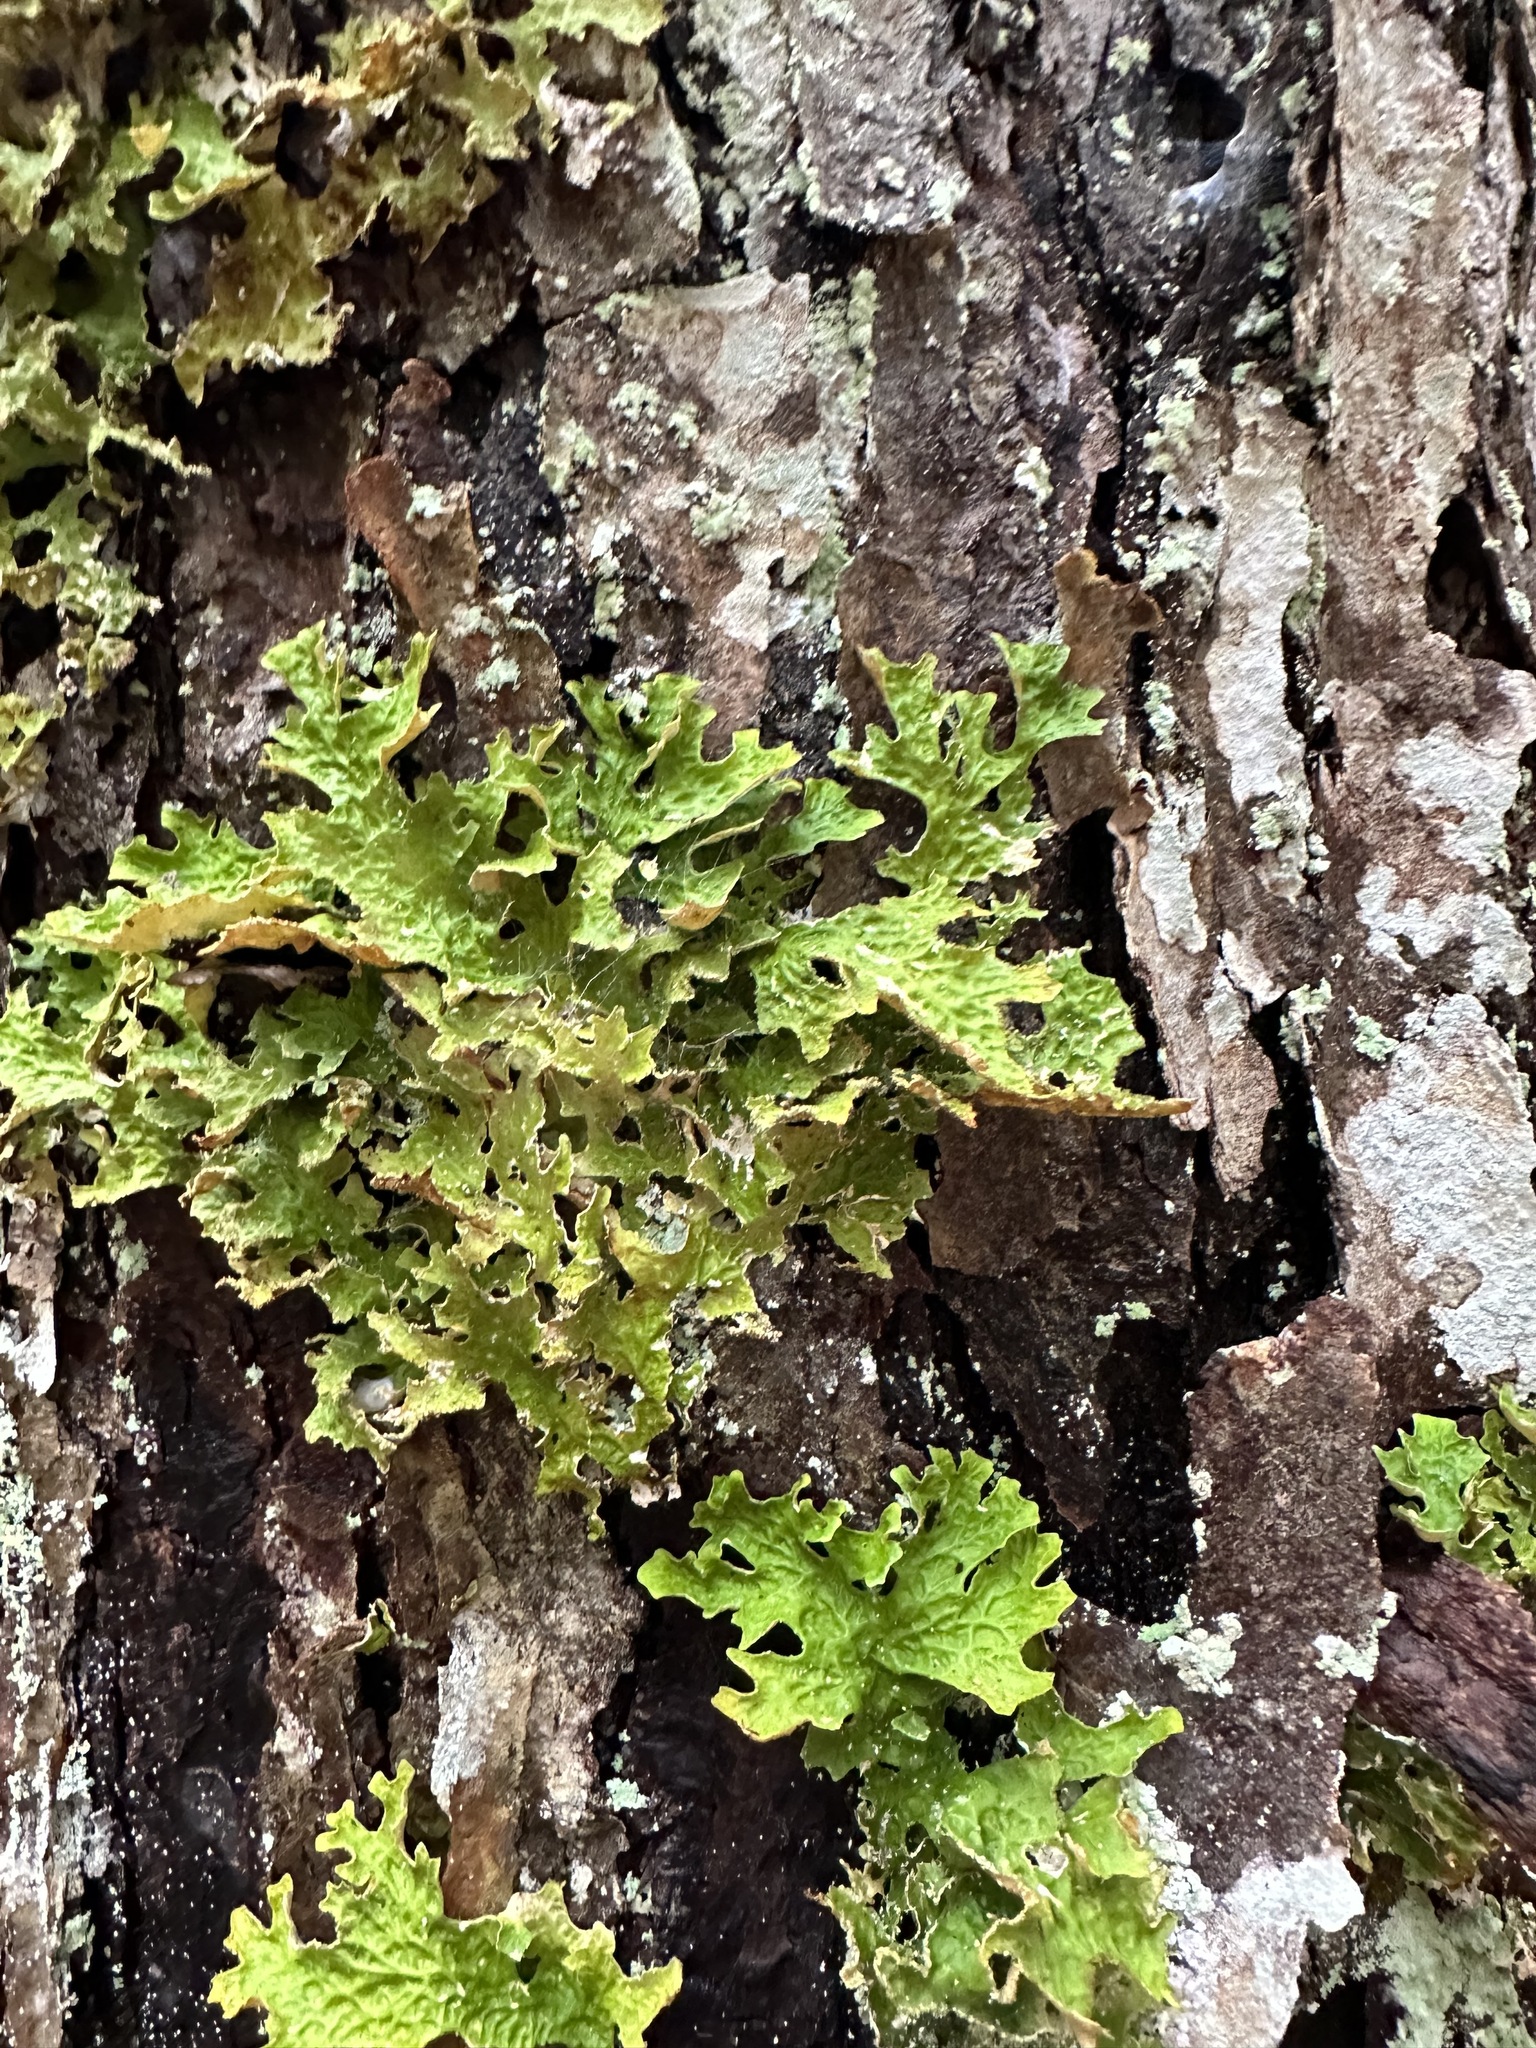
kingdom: Fungi
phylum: Ascomycota
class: Lecanoromycetes
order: Peltigerales
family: Lobariaceae
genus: Lobaria
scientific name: Lobaria pulmonaria
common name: Lungwort
